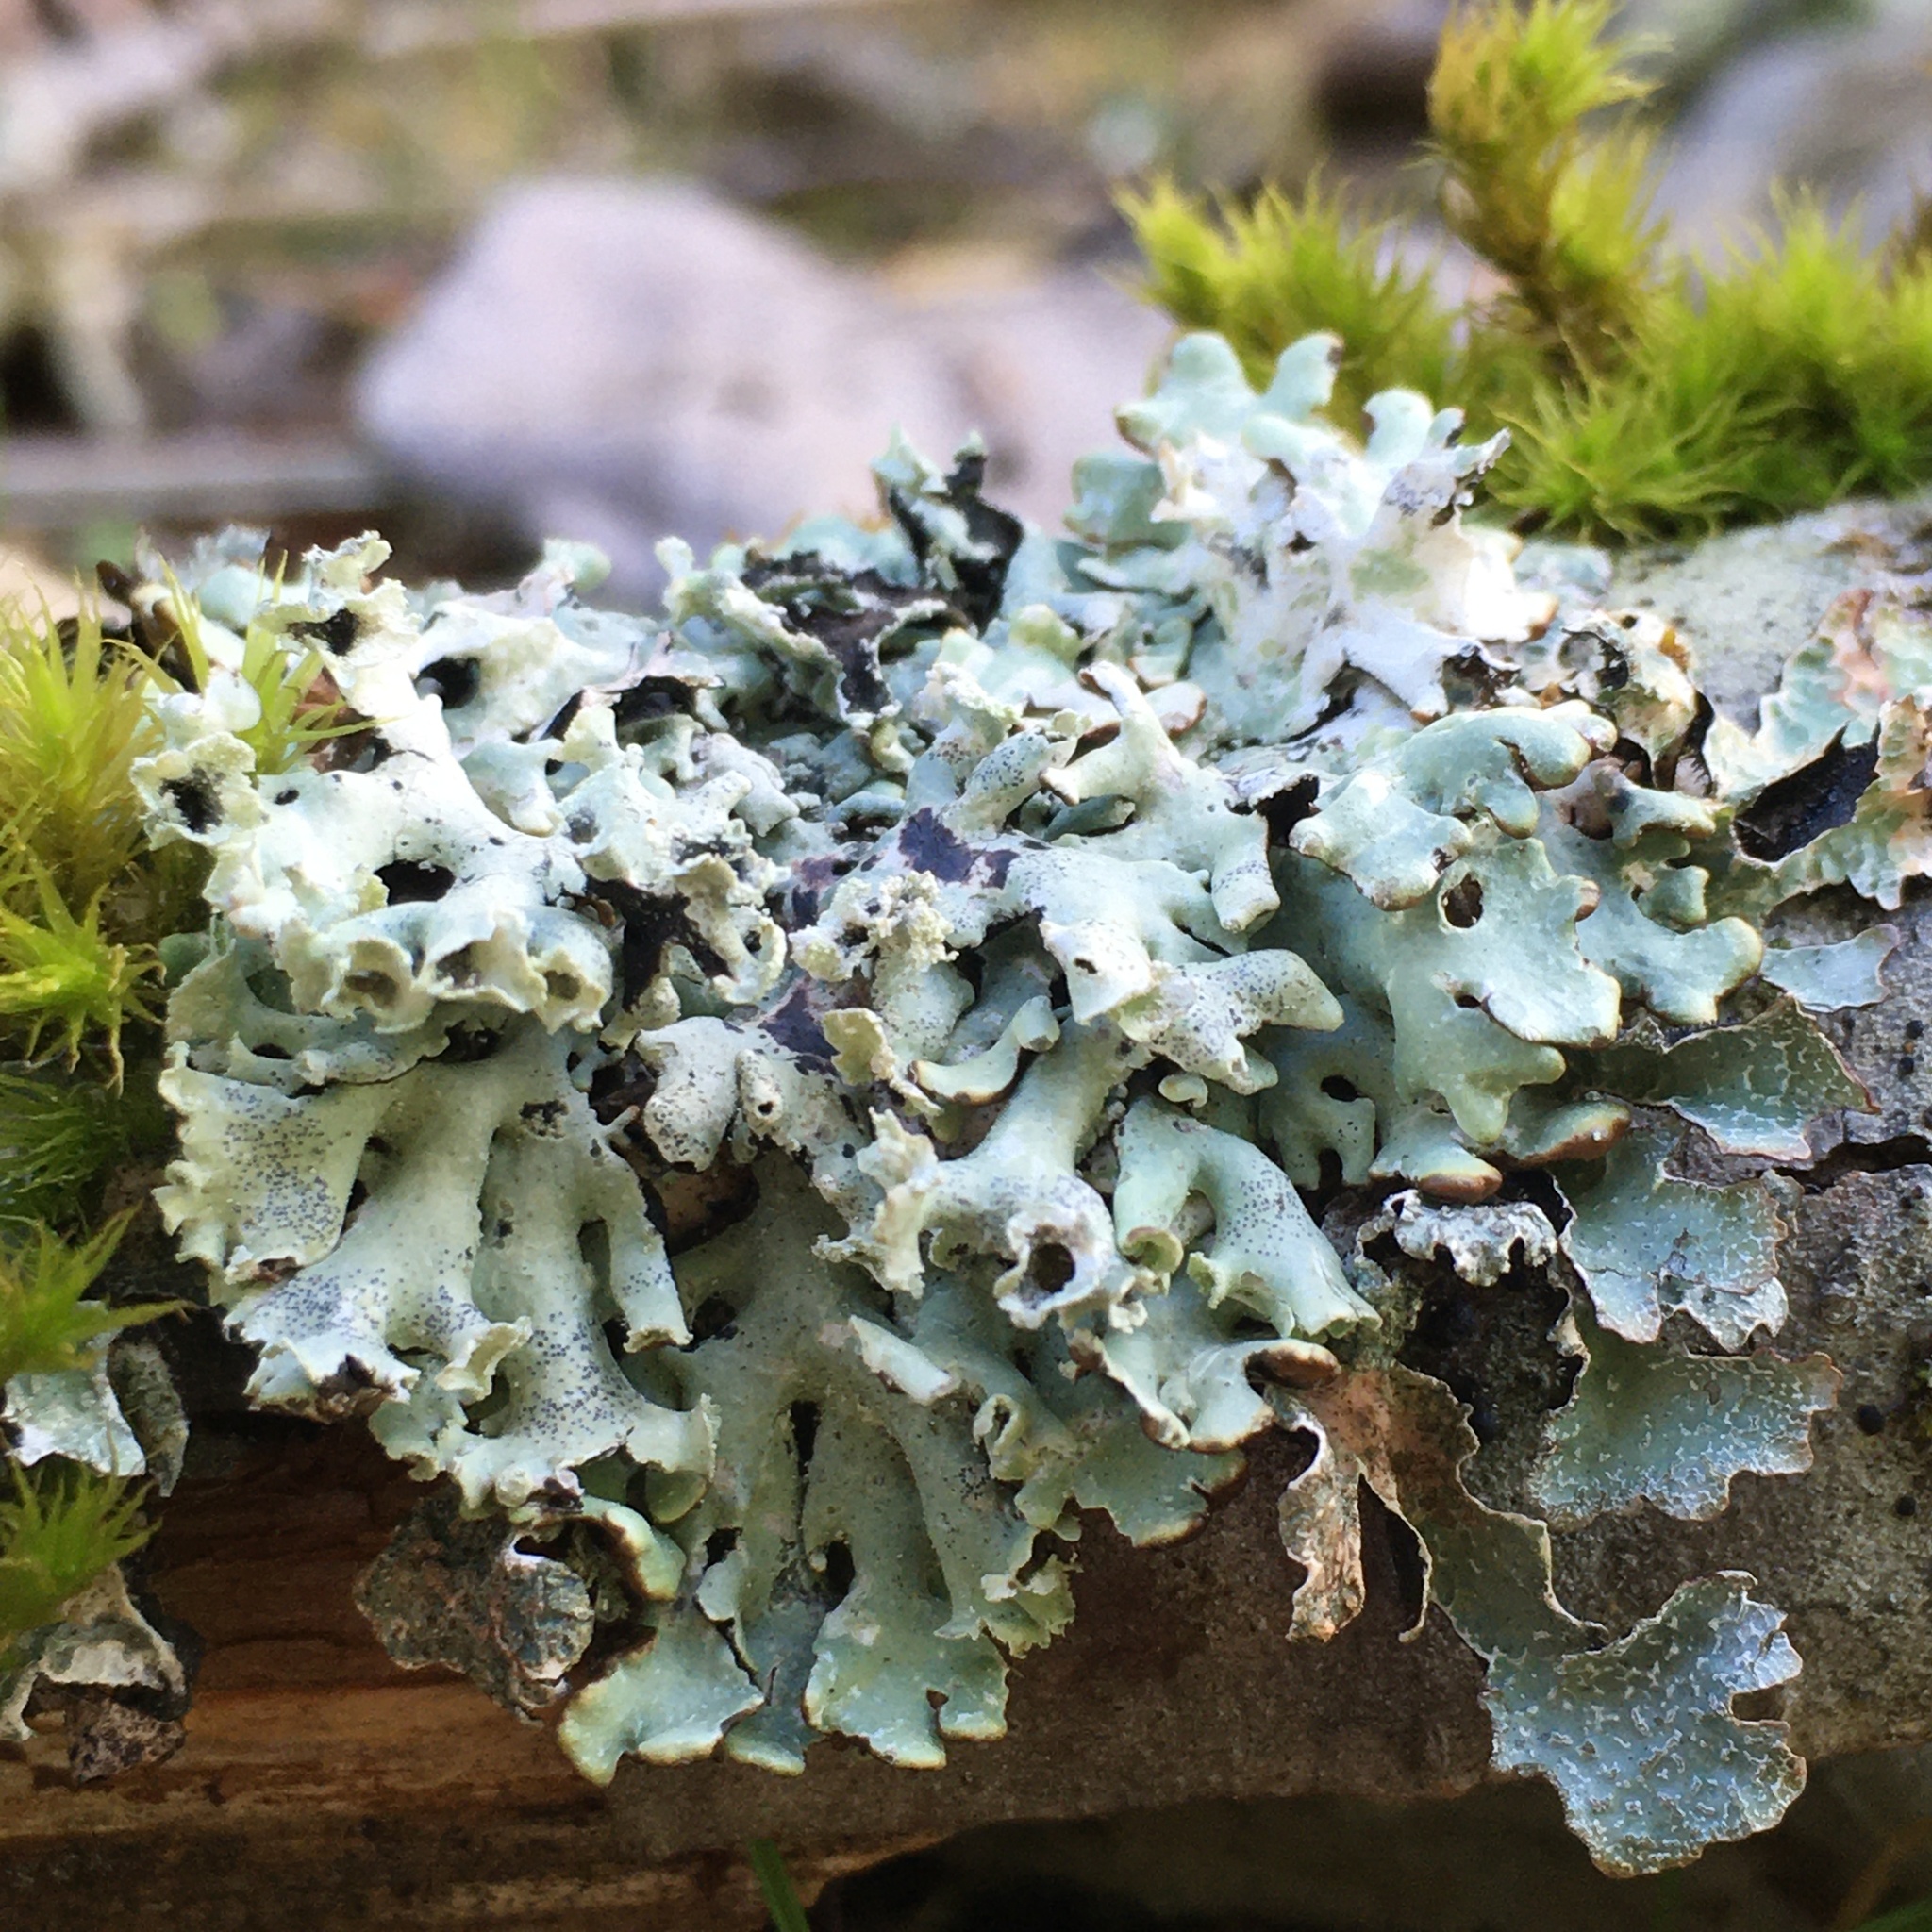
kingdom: Fungi
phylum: Ascomycota
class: Lecanoromycetes
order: Lecanorales
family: Parmeliaceae
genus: Hypogymnia
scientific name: Hypogymnia physodes
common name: Dark crottle
